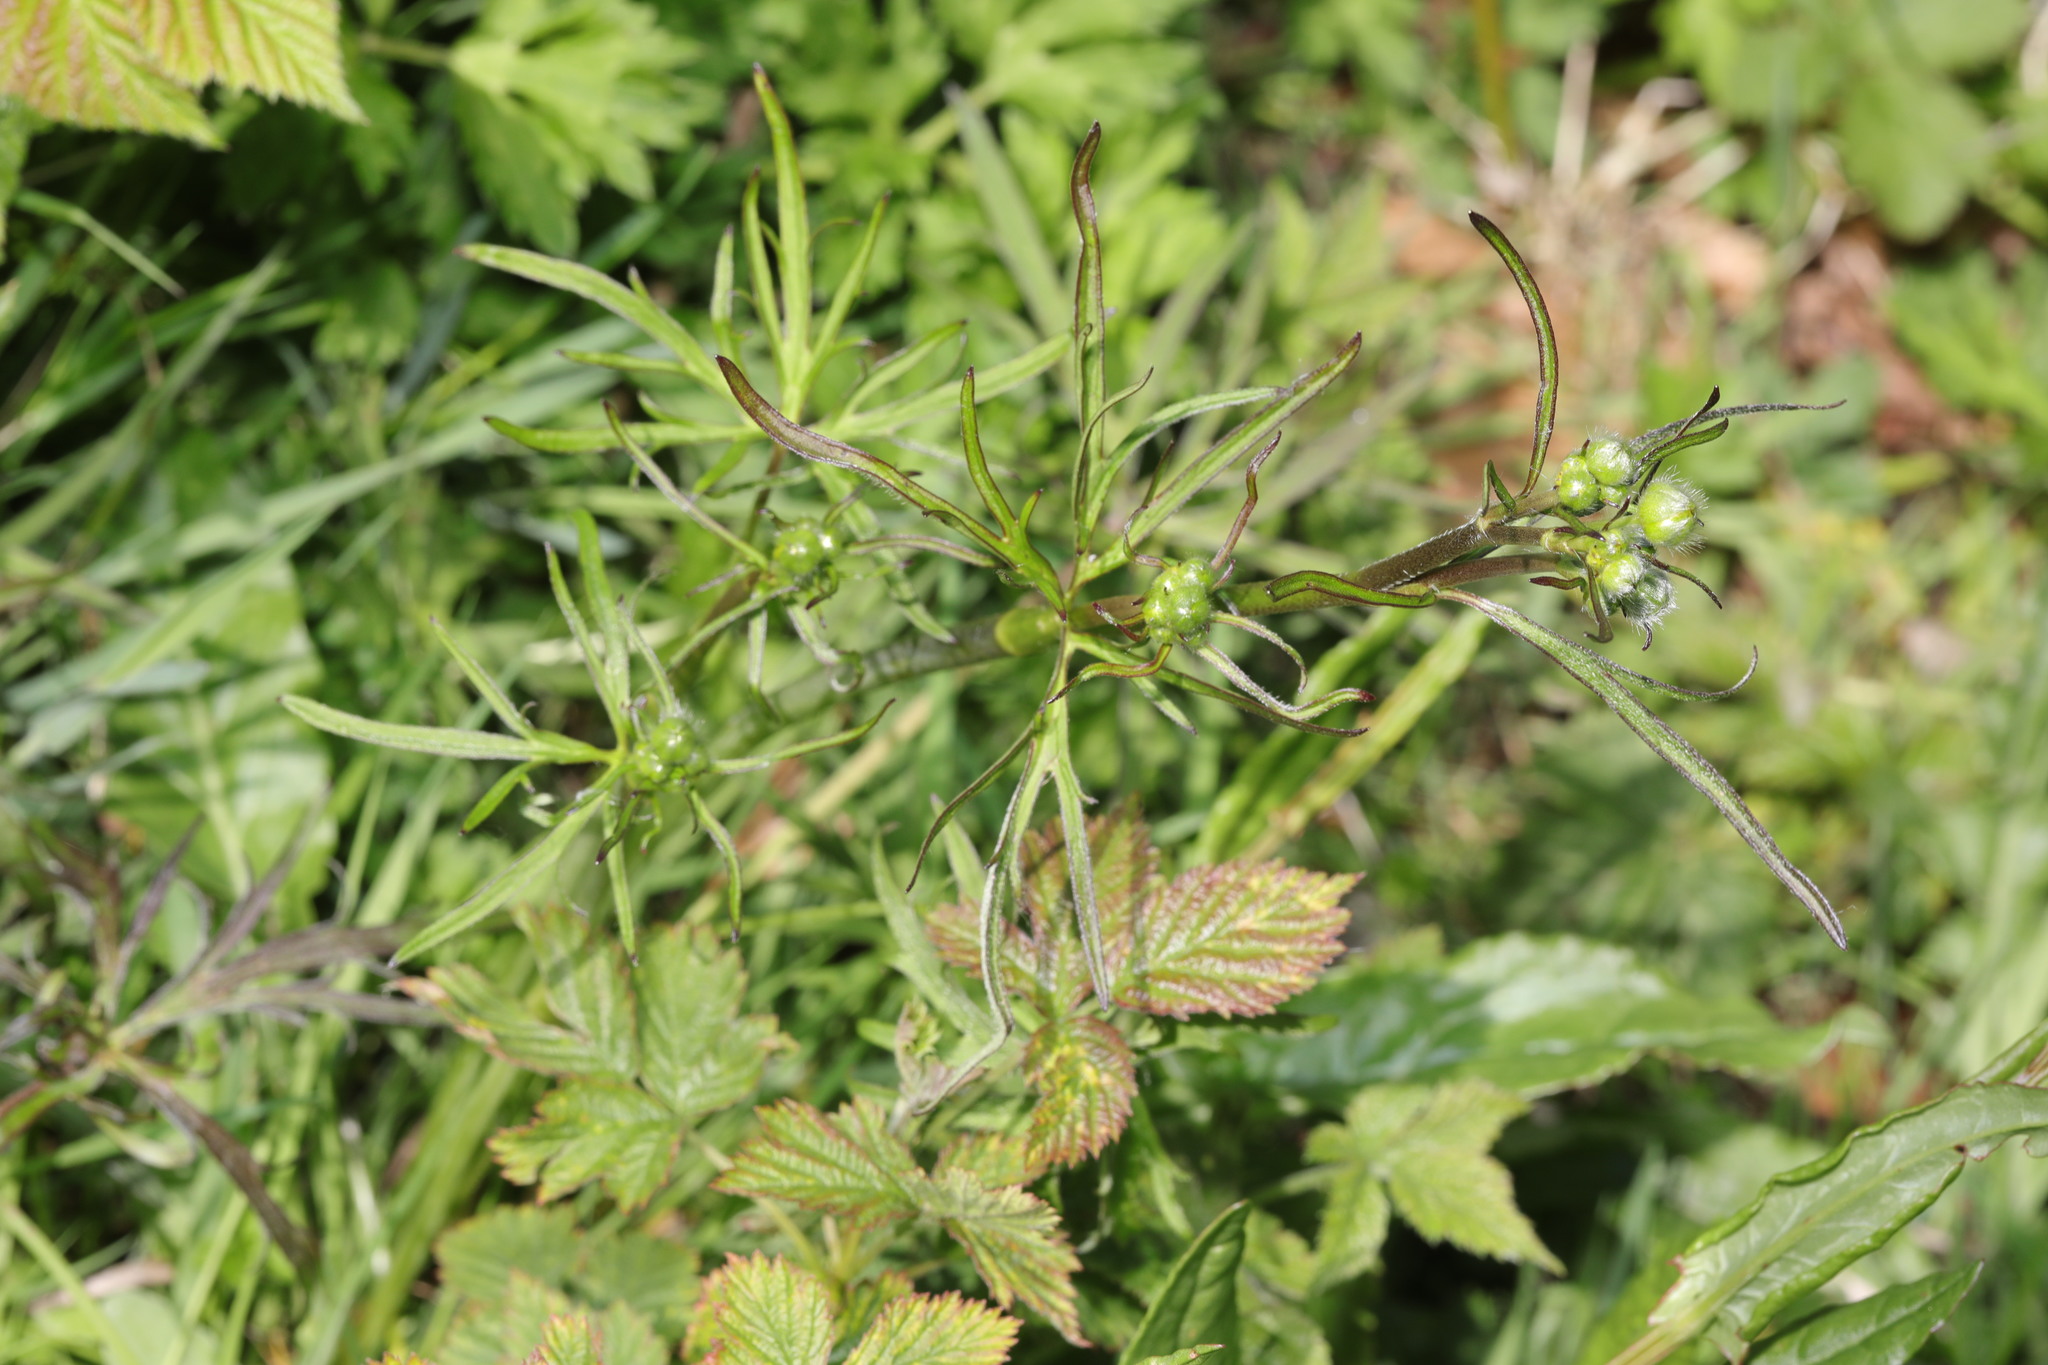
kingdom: Plantae
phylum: Tracheophyta
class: Magnoliopsida
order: Ranunculales
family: Ranunculaceae
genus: Ranunculus
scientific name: Ranunculus acris
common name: Meadow buttercup
